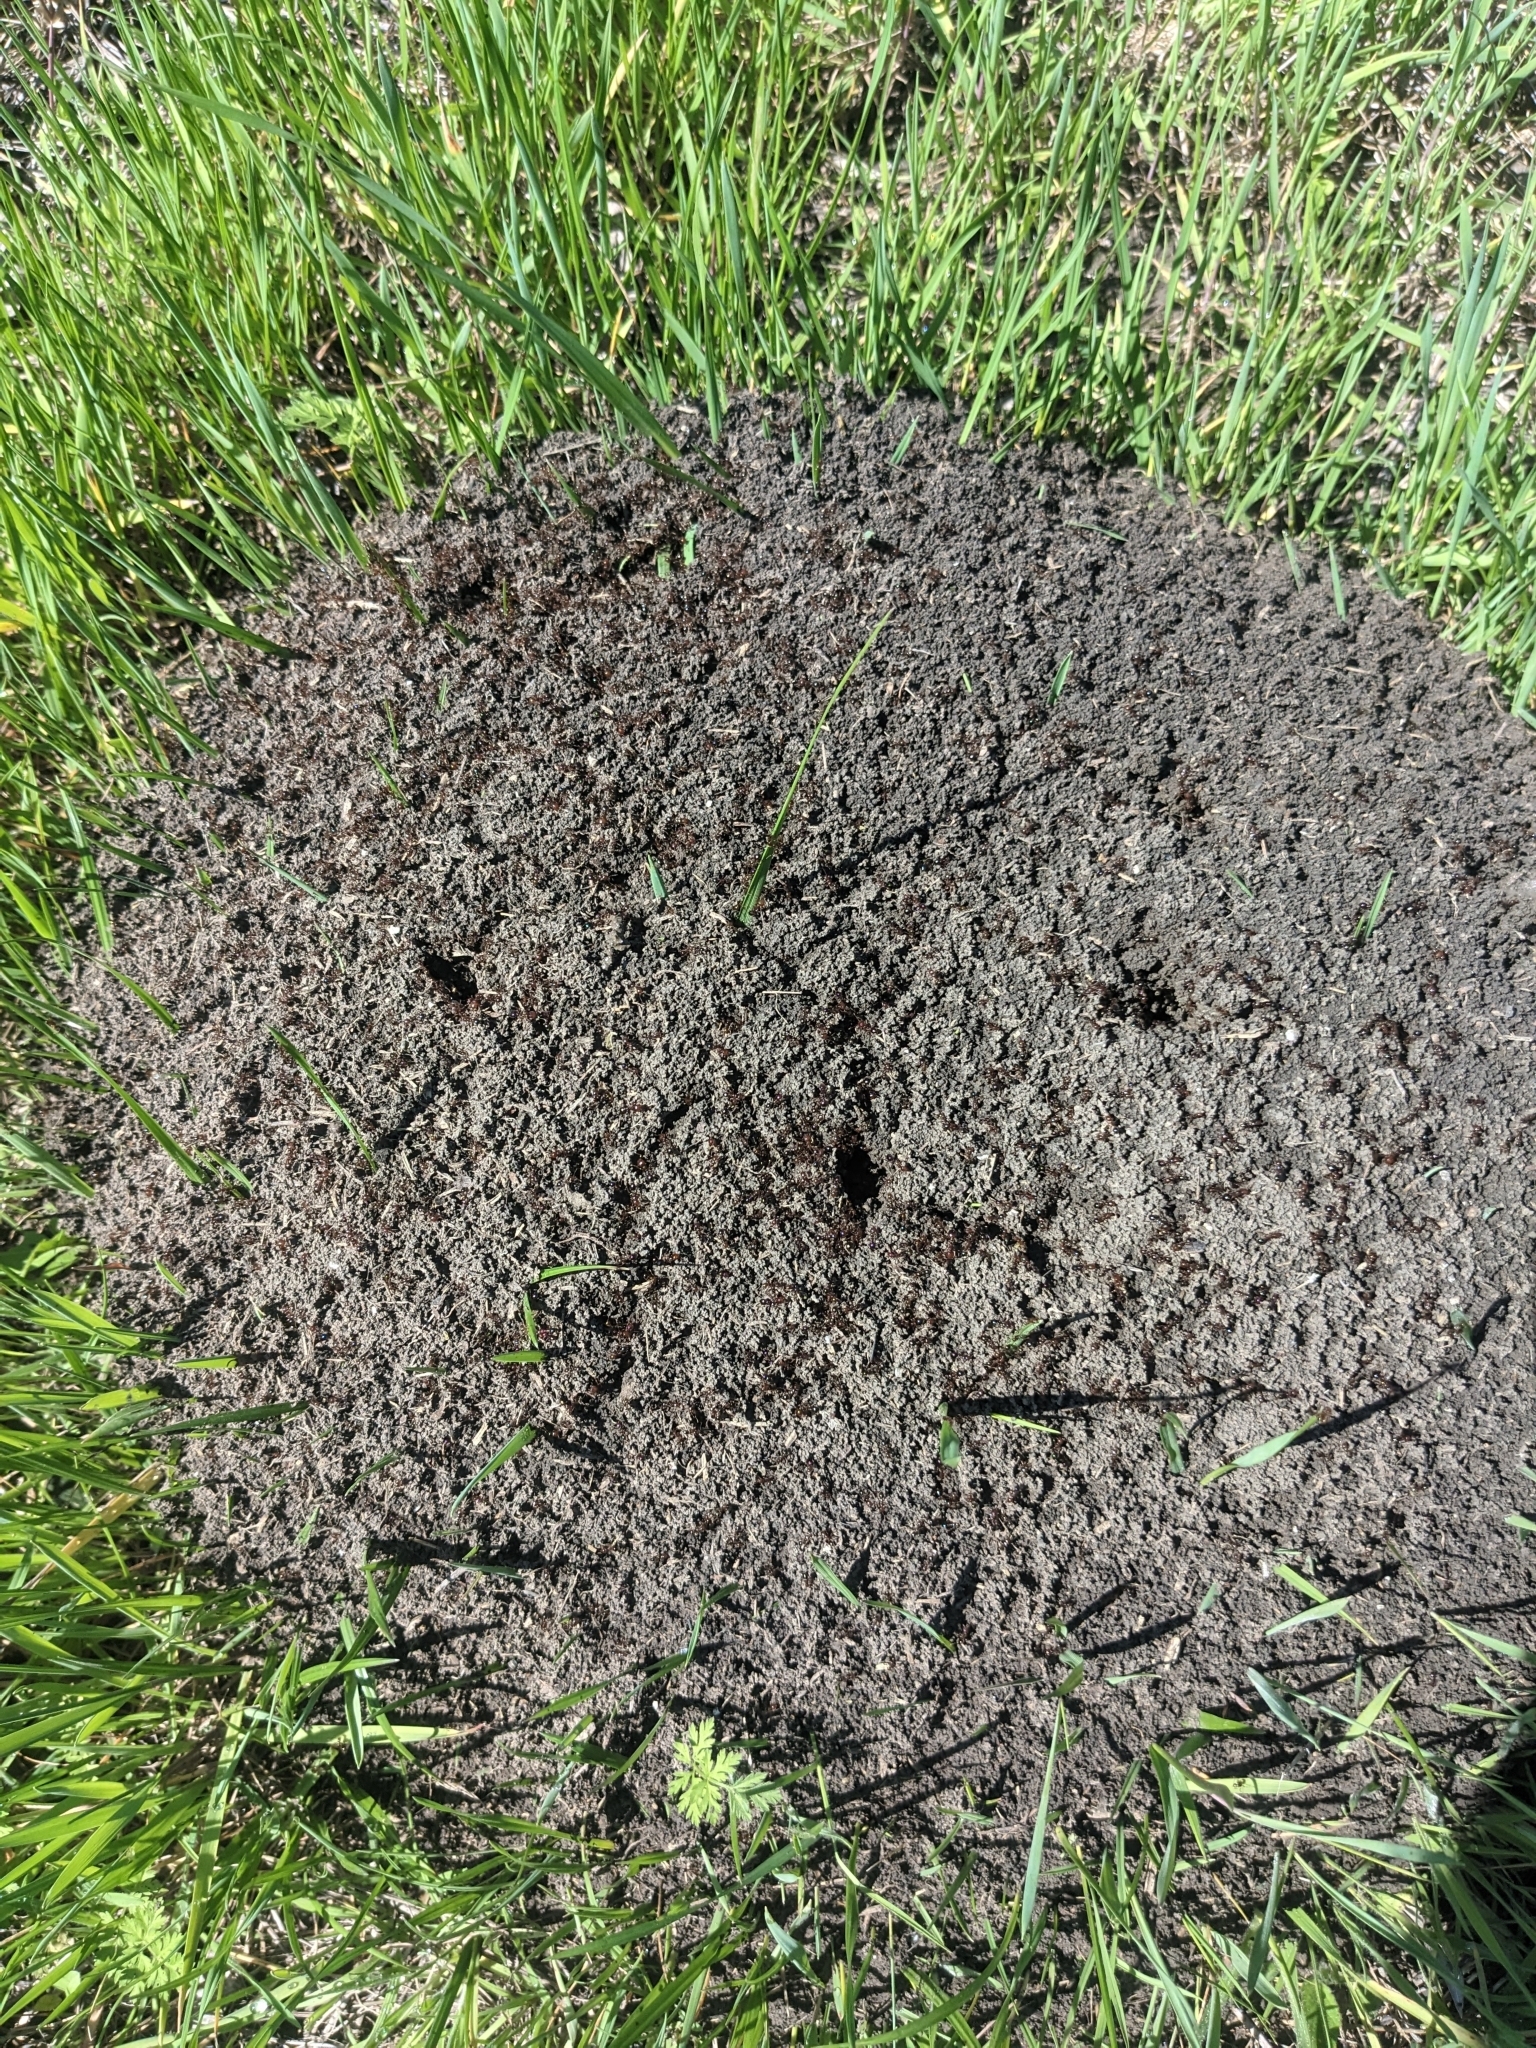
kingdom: Animalia
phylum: Arthropoda
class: Insecta
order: Hymenoptera
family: Formicidae
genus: Solenopsis
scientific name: Solenopsis invicta
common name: Red imported fire ant
